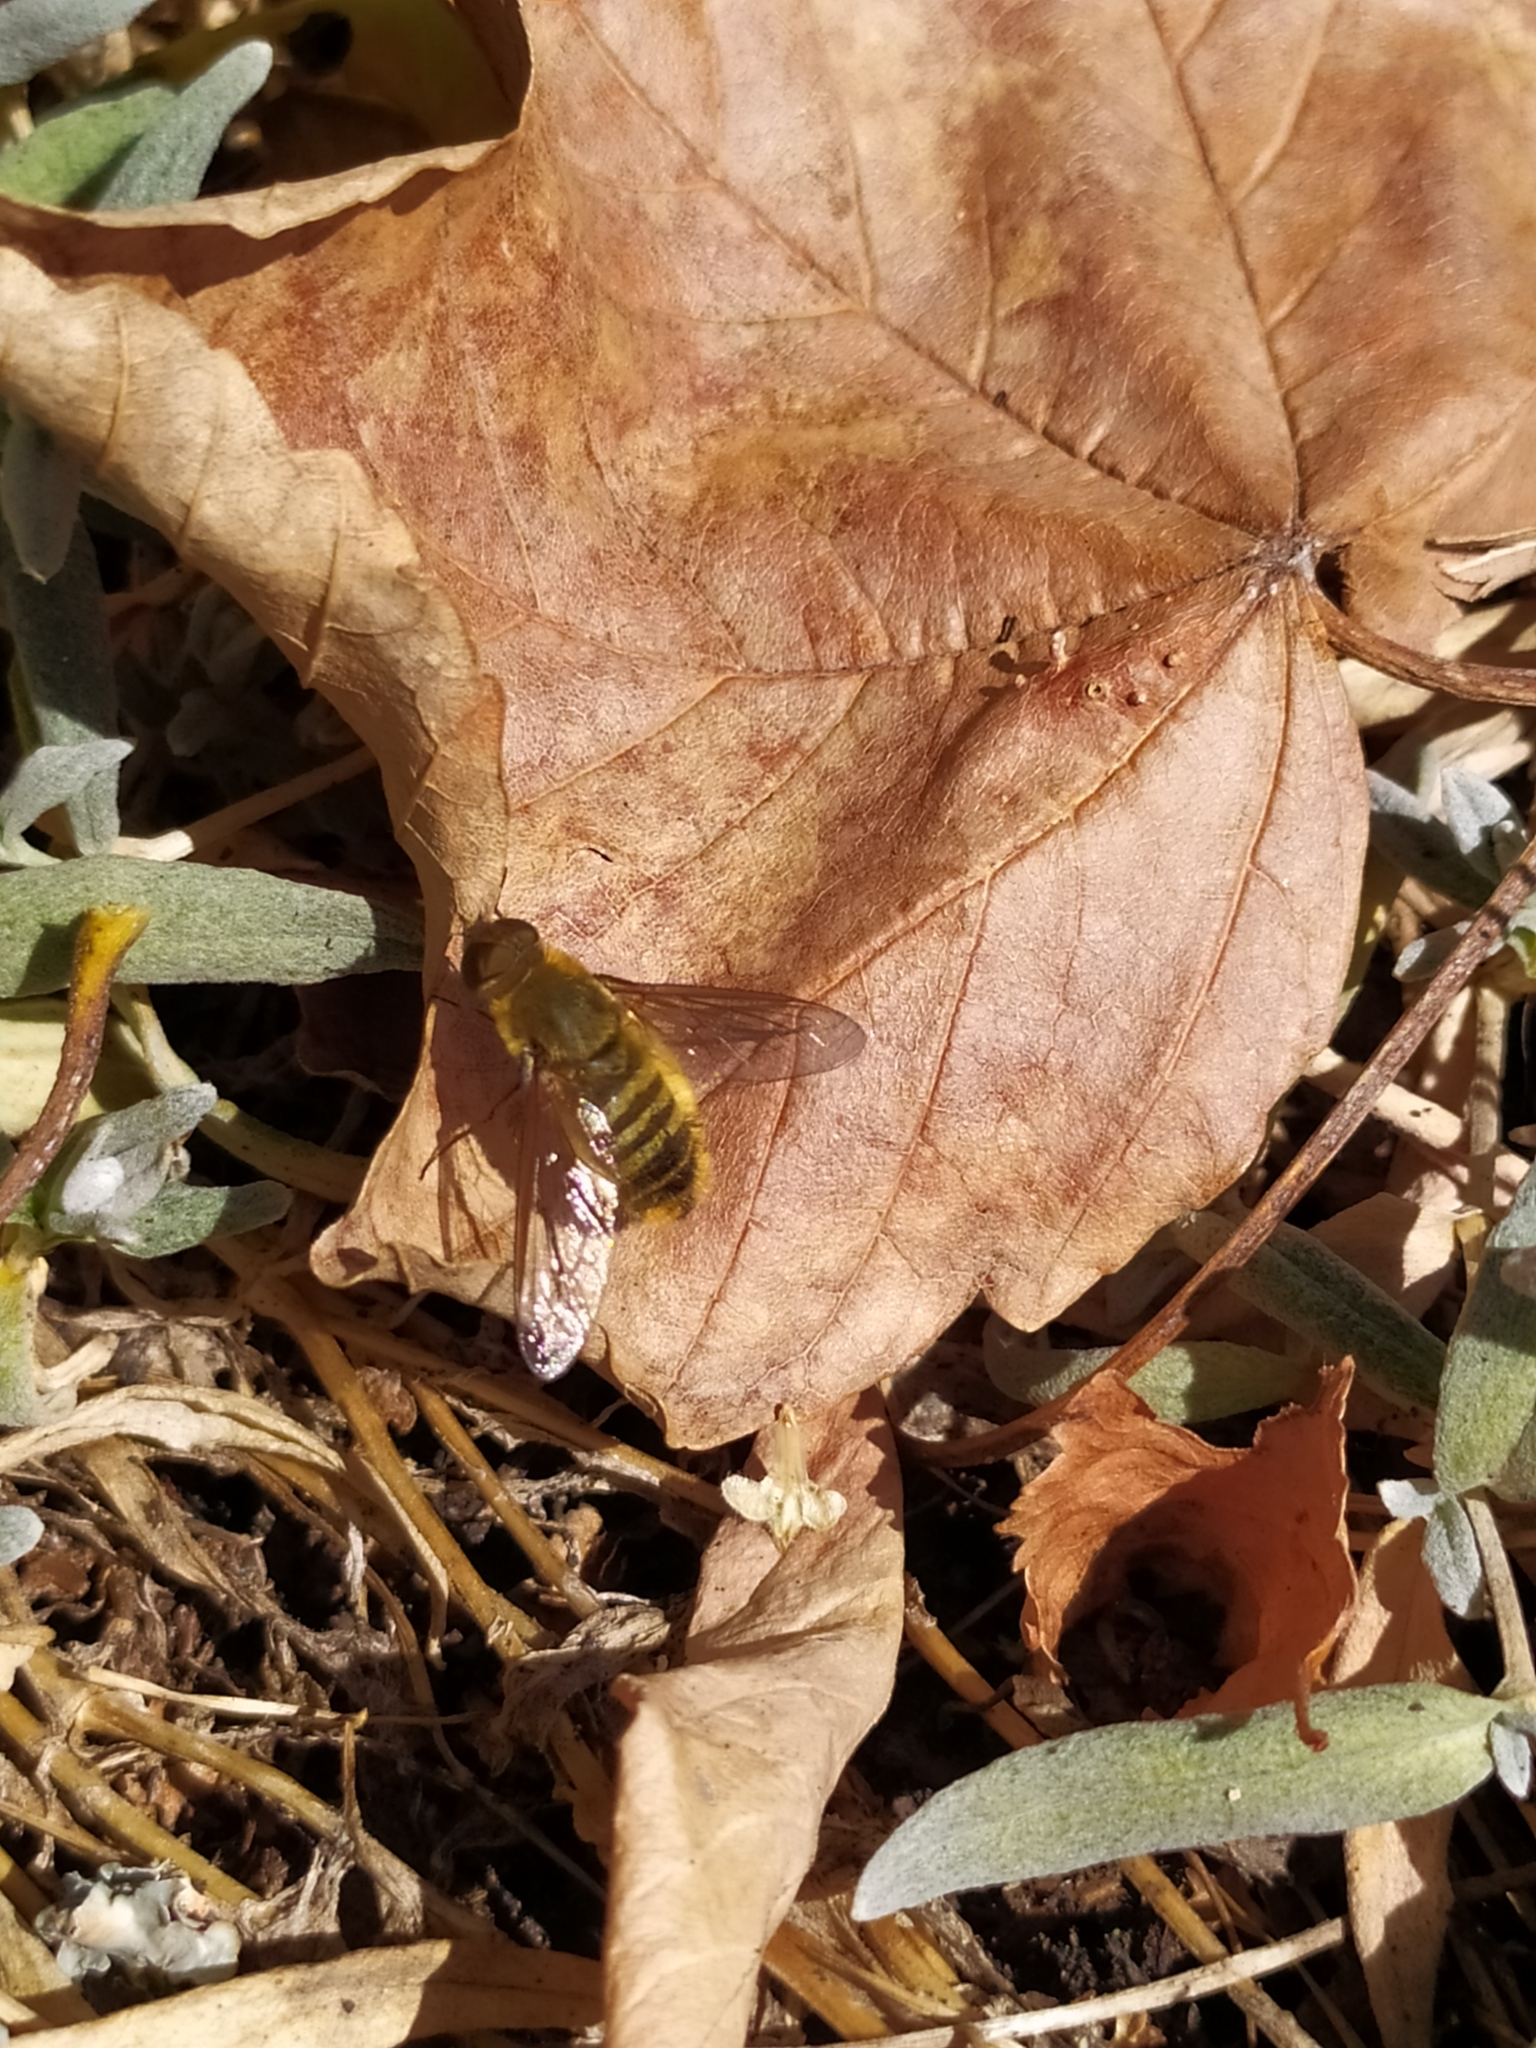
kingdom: Animalia
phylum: Arthropoda
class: Insecta
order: Diptera
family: Bombyliidae
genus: Villa
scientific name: Villa hottentotta
